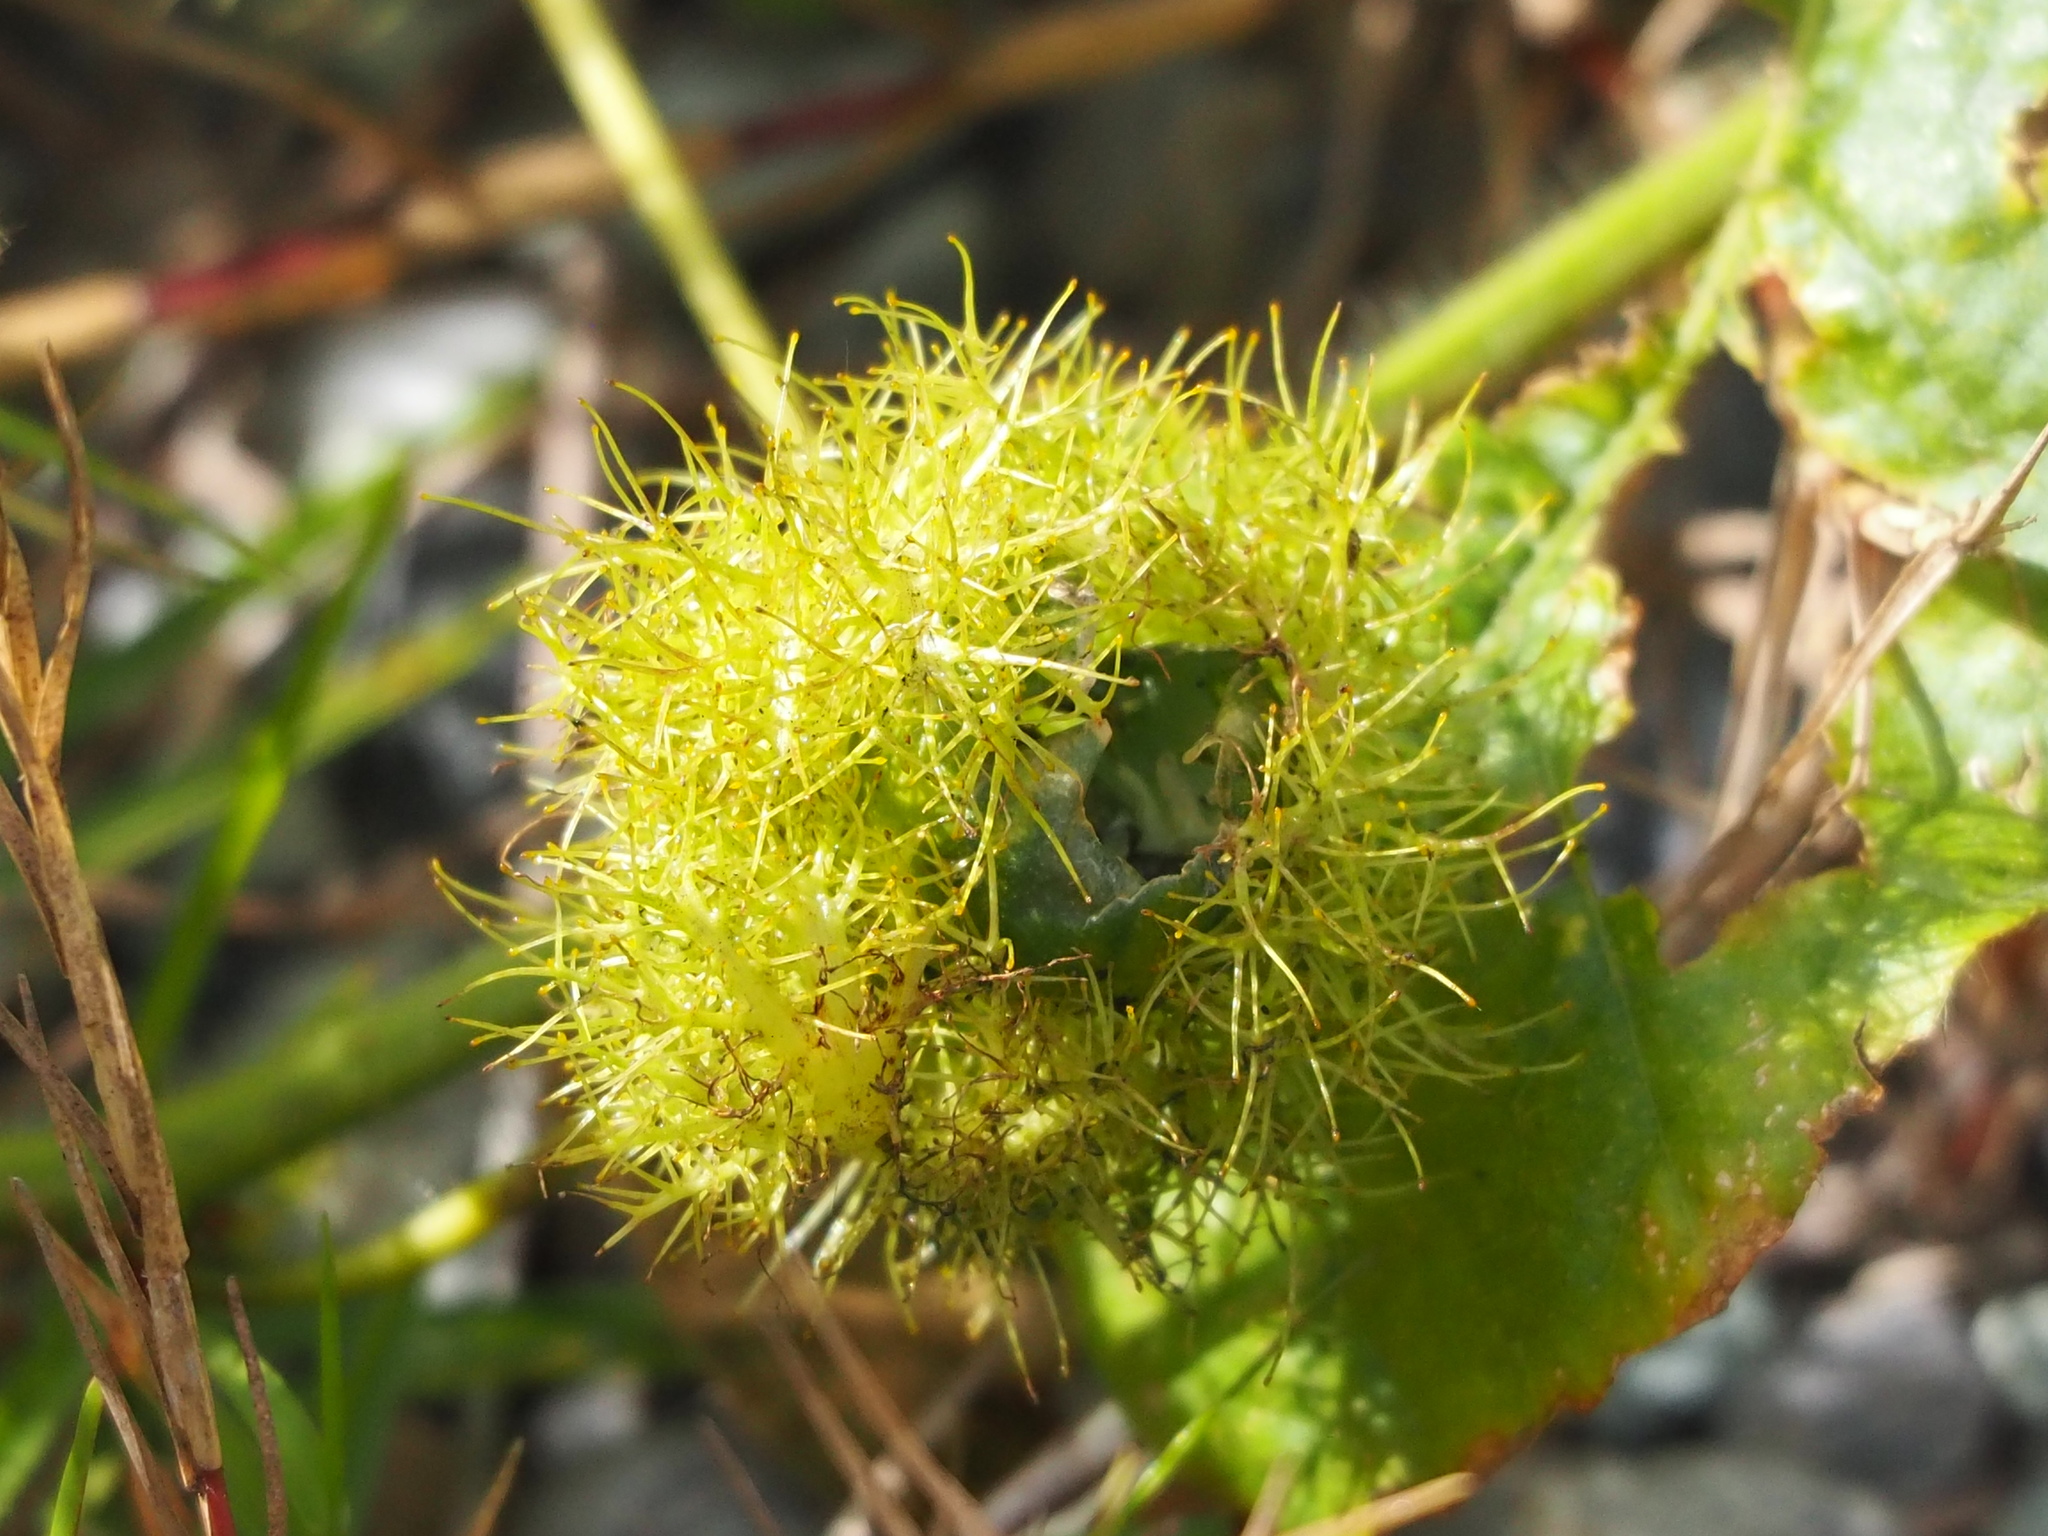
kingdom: Plantae
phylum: Tracheophyta
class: Magnoliopsida
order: Malpighiales
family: Passifloraceae
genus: Passiflora
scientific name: Passiflora vesicaria
